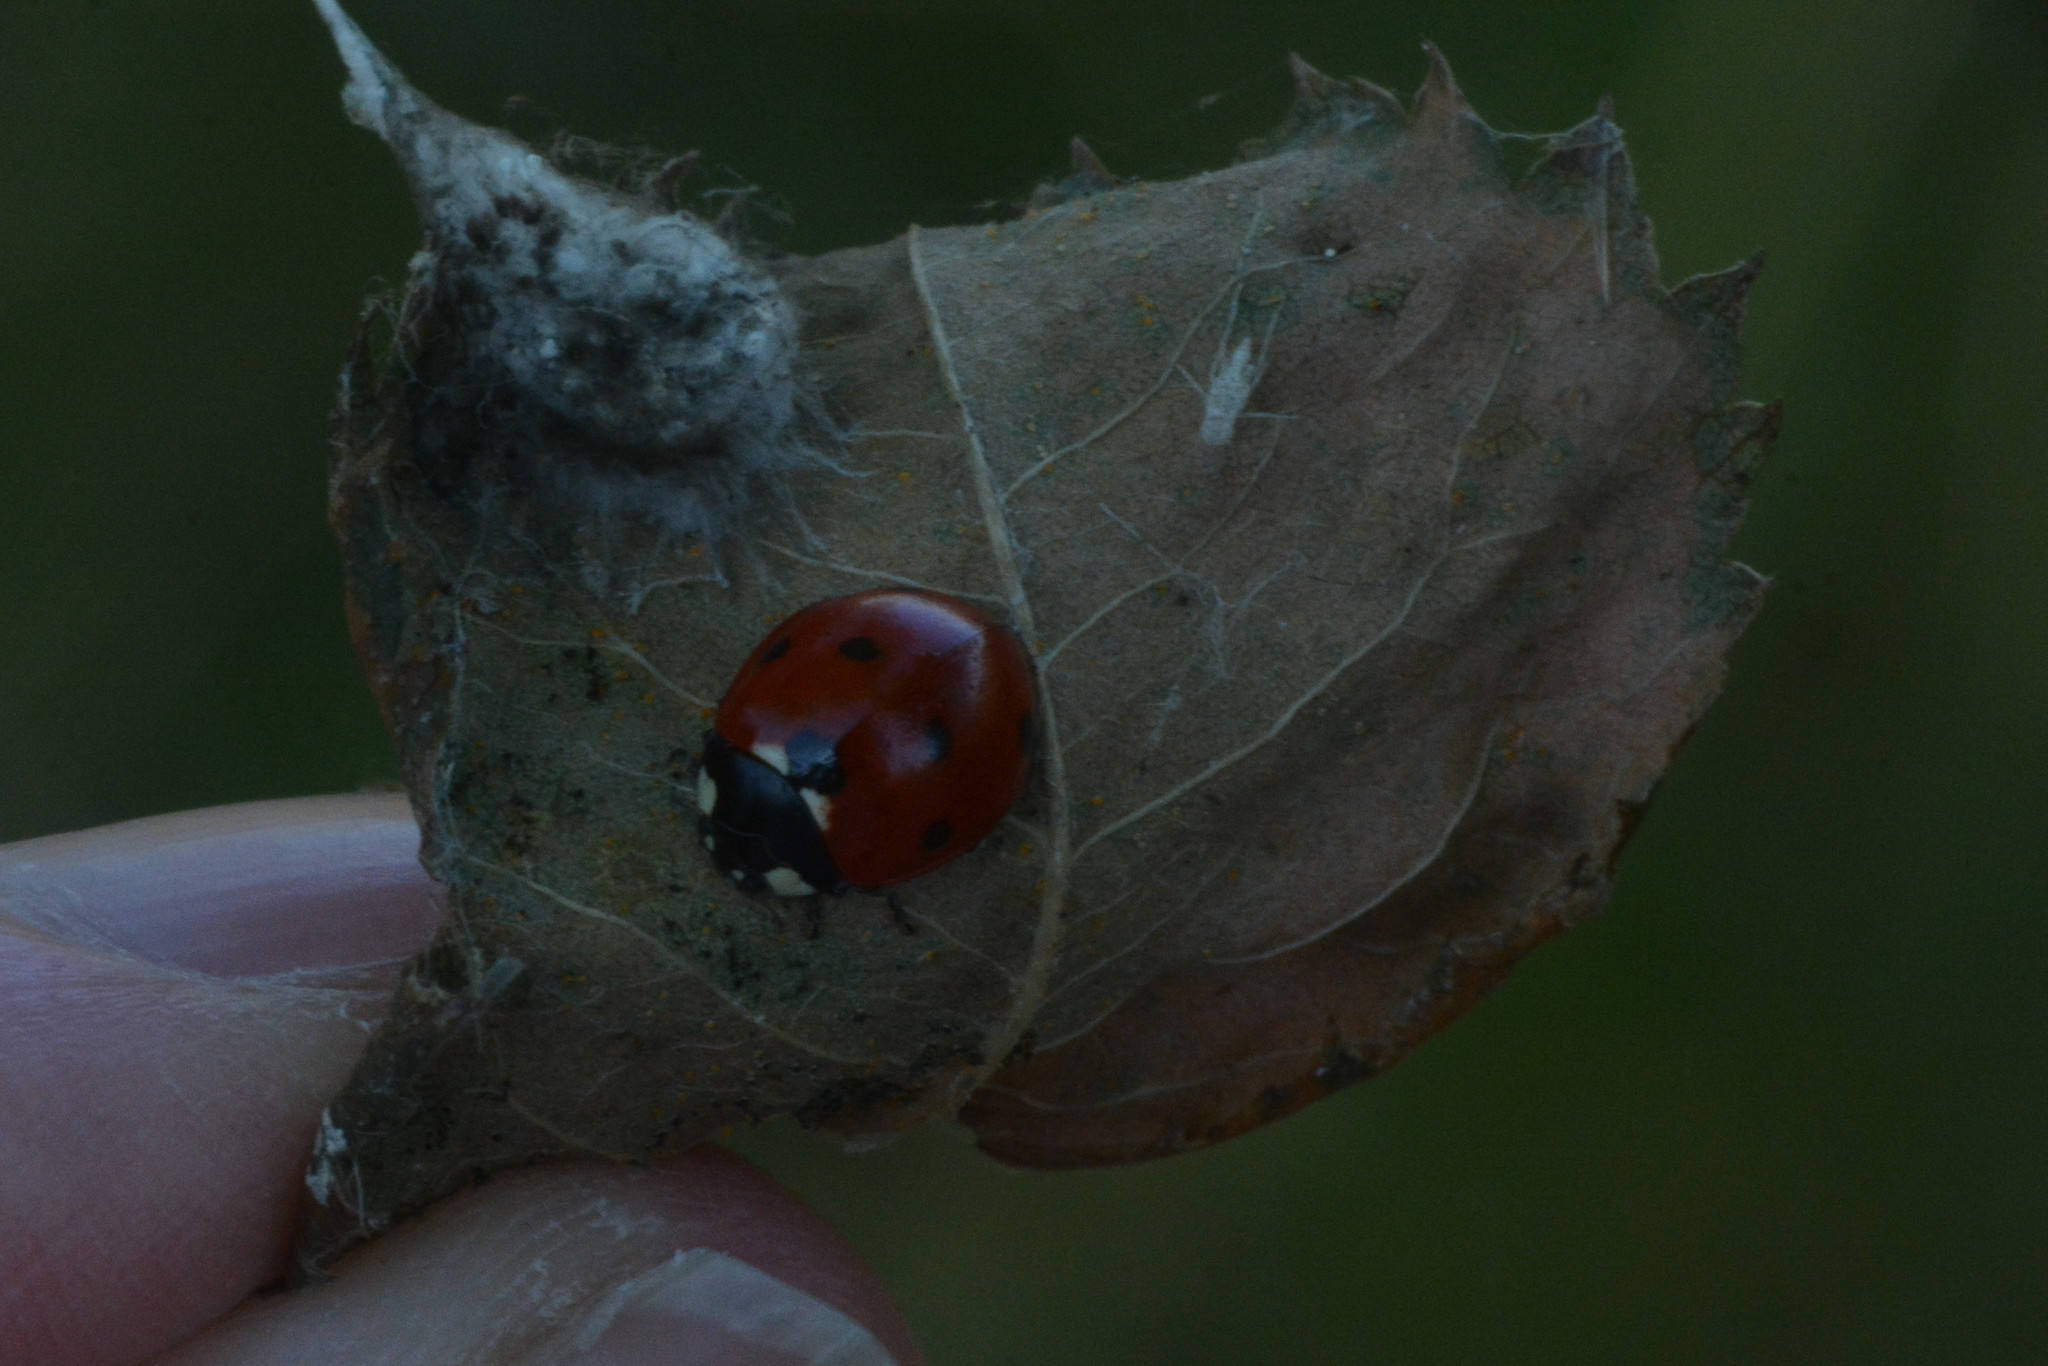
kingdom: Animalia
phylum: Arthropoda
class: Insecta
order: Coleoptera
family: Coccinellidae
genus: Coccinella
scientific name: Coccinella septempunctata
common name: Sevenspotted lady beetle
